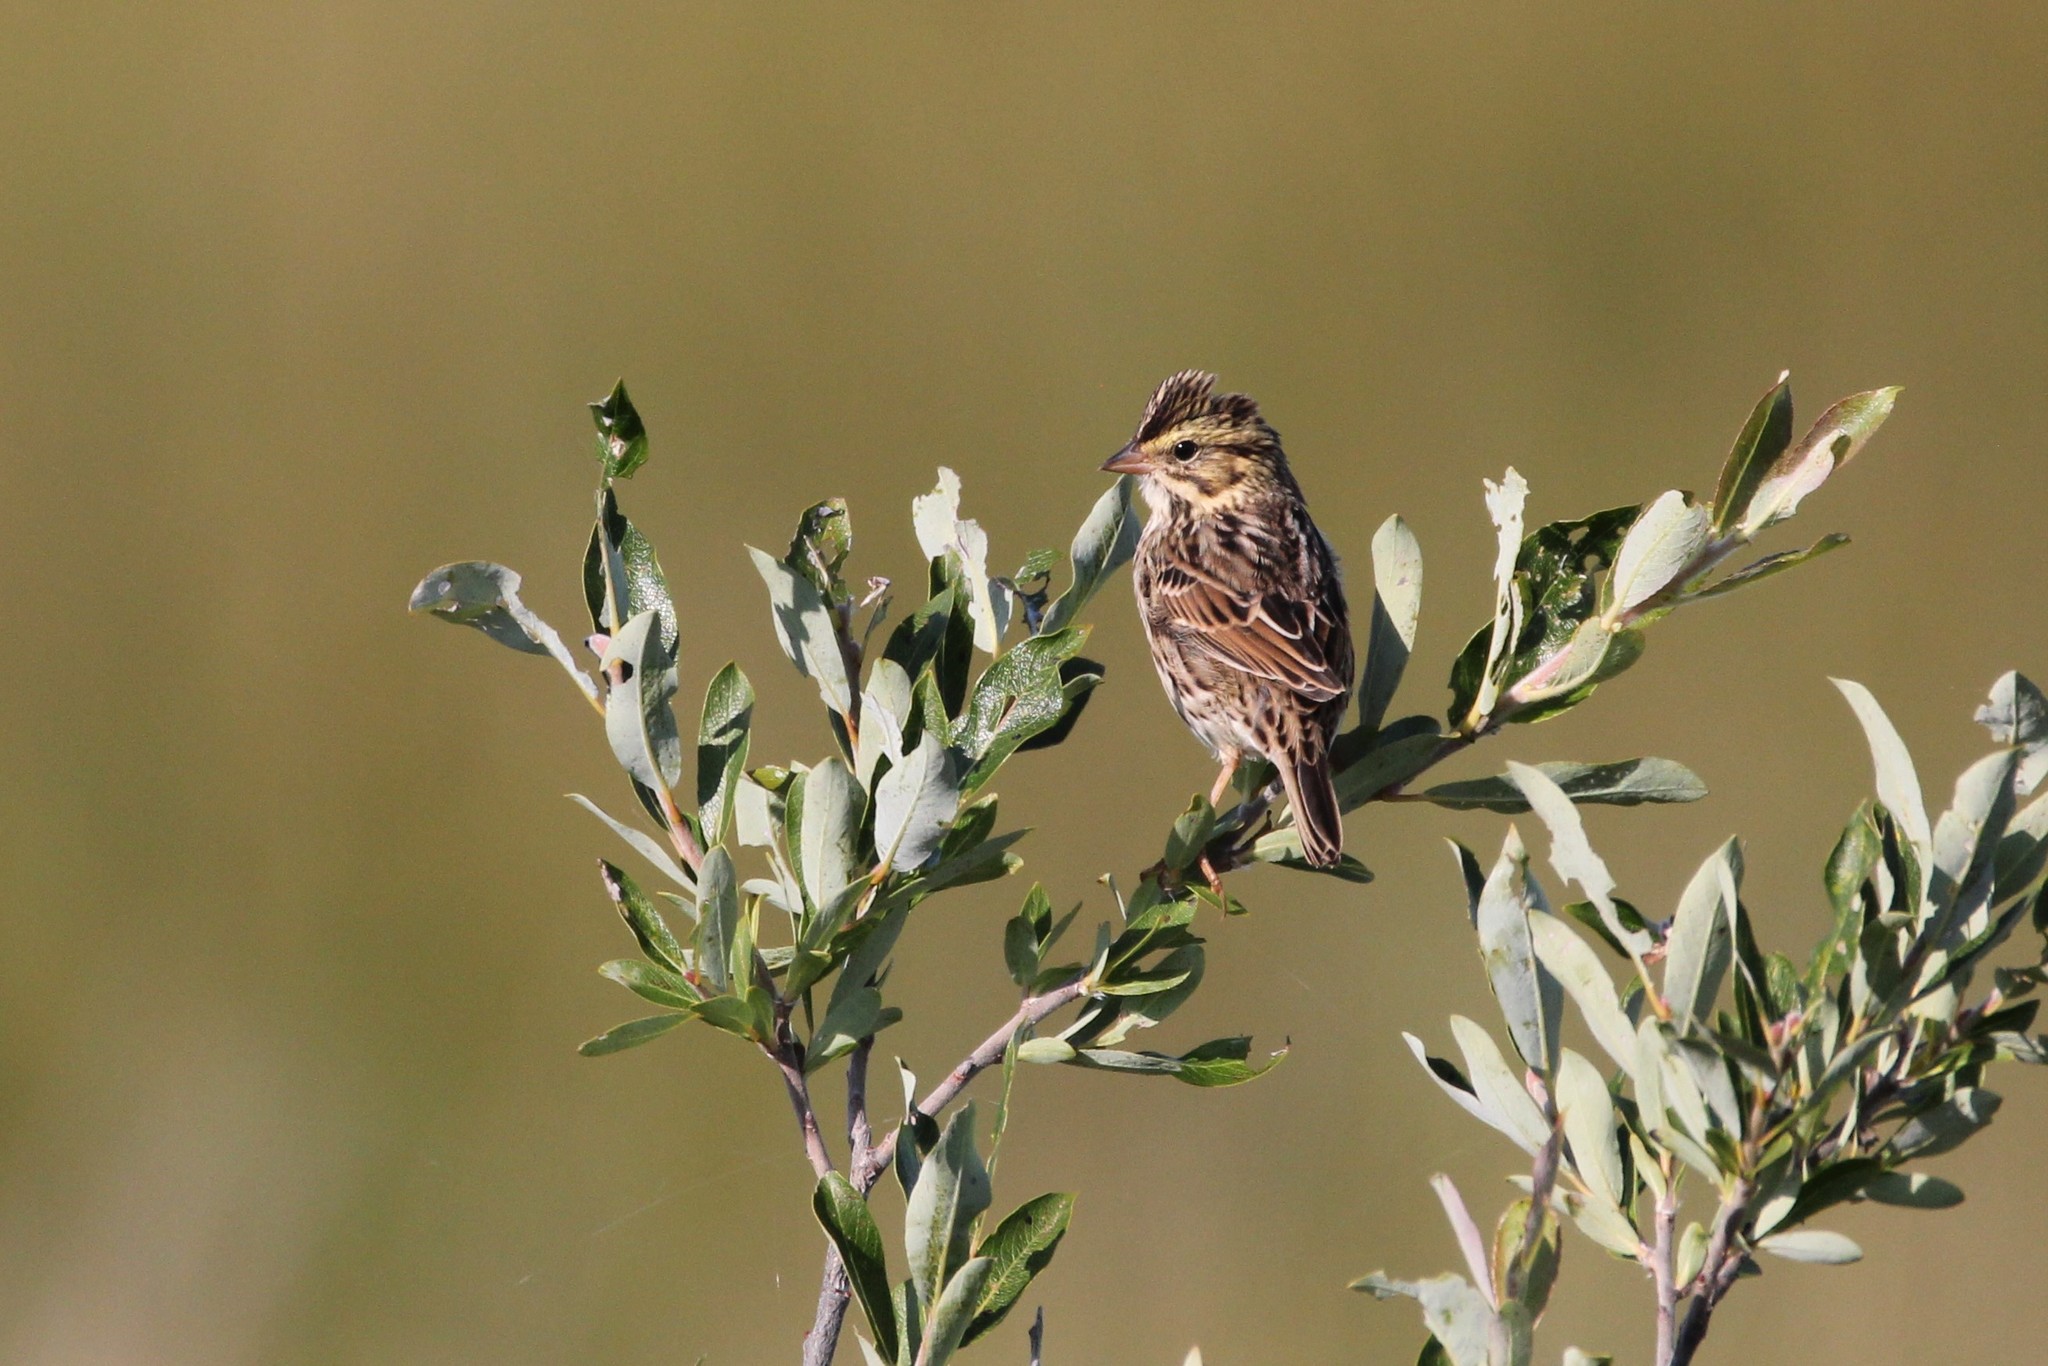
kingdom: Animalia
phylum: Chordata
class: Aves
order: Passeriformes
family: Passerellidae
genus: Passerculus
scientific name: Passerculus sandwichensis
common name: Savannah sparrow
